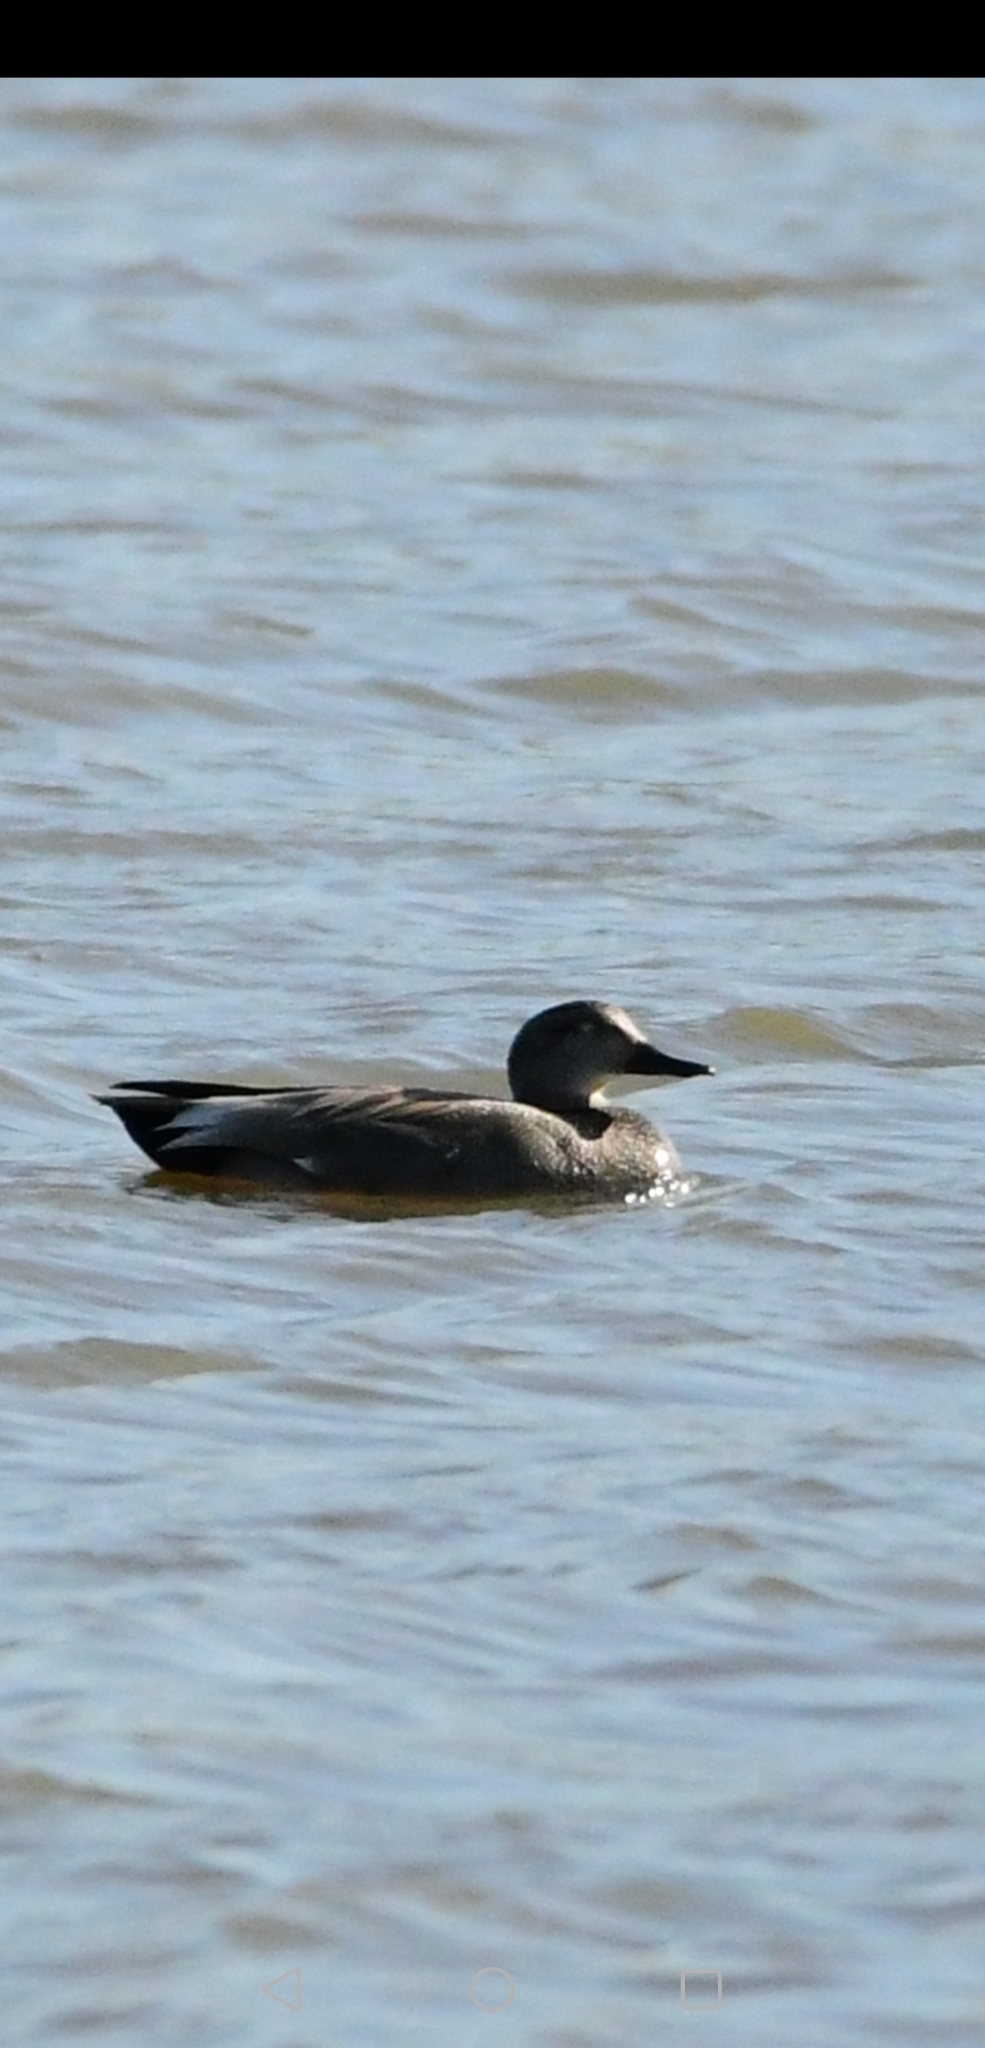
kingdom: Animalia
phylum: Chordata
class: Aves
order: Anseriformes
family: Anatidae
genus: Mareca
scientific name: Mareca strepera
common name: Gadwall
